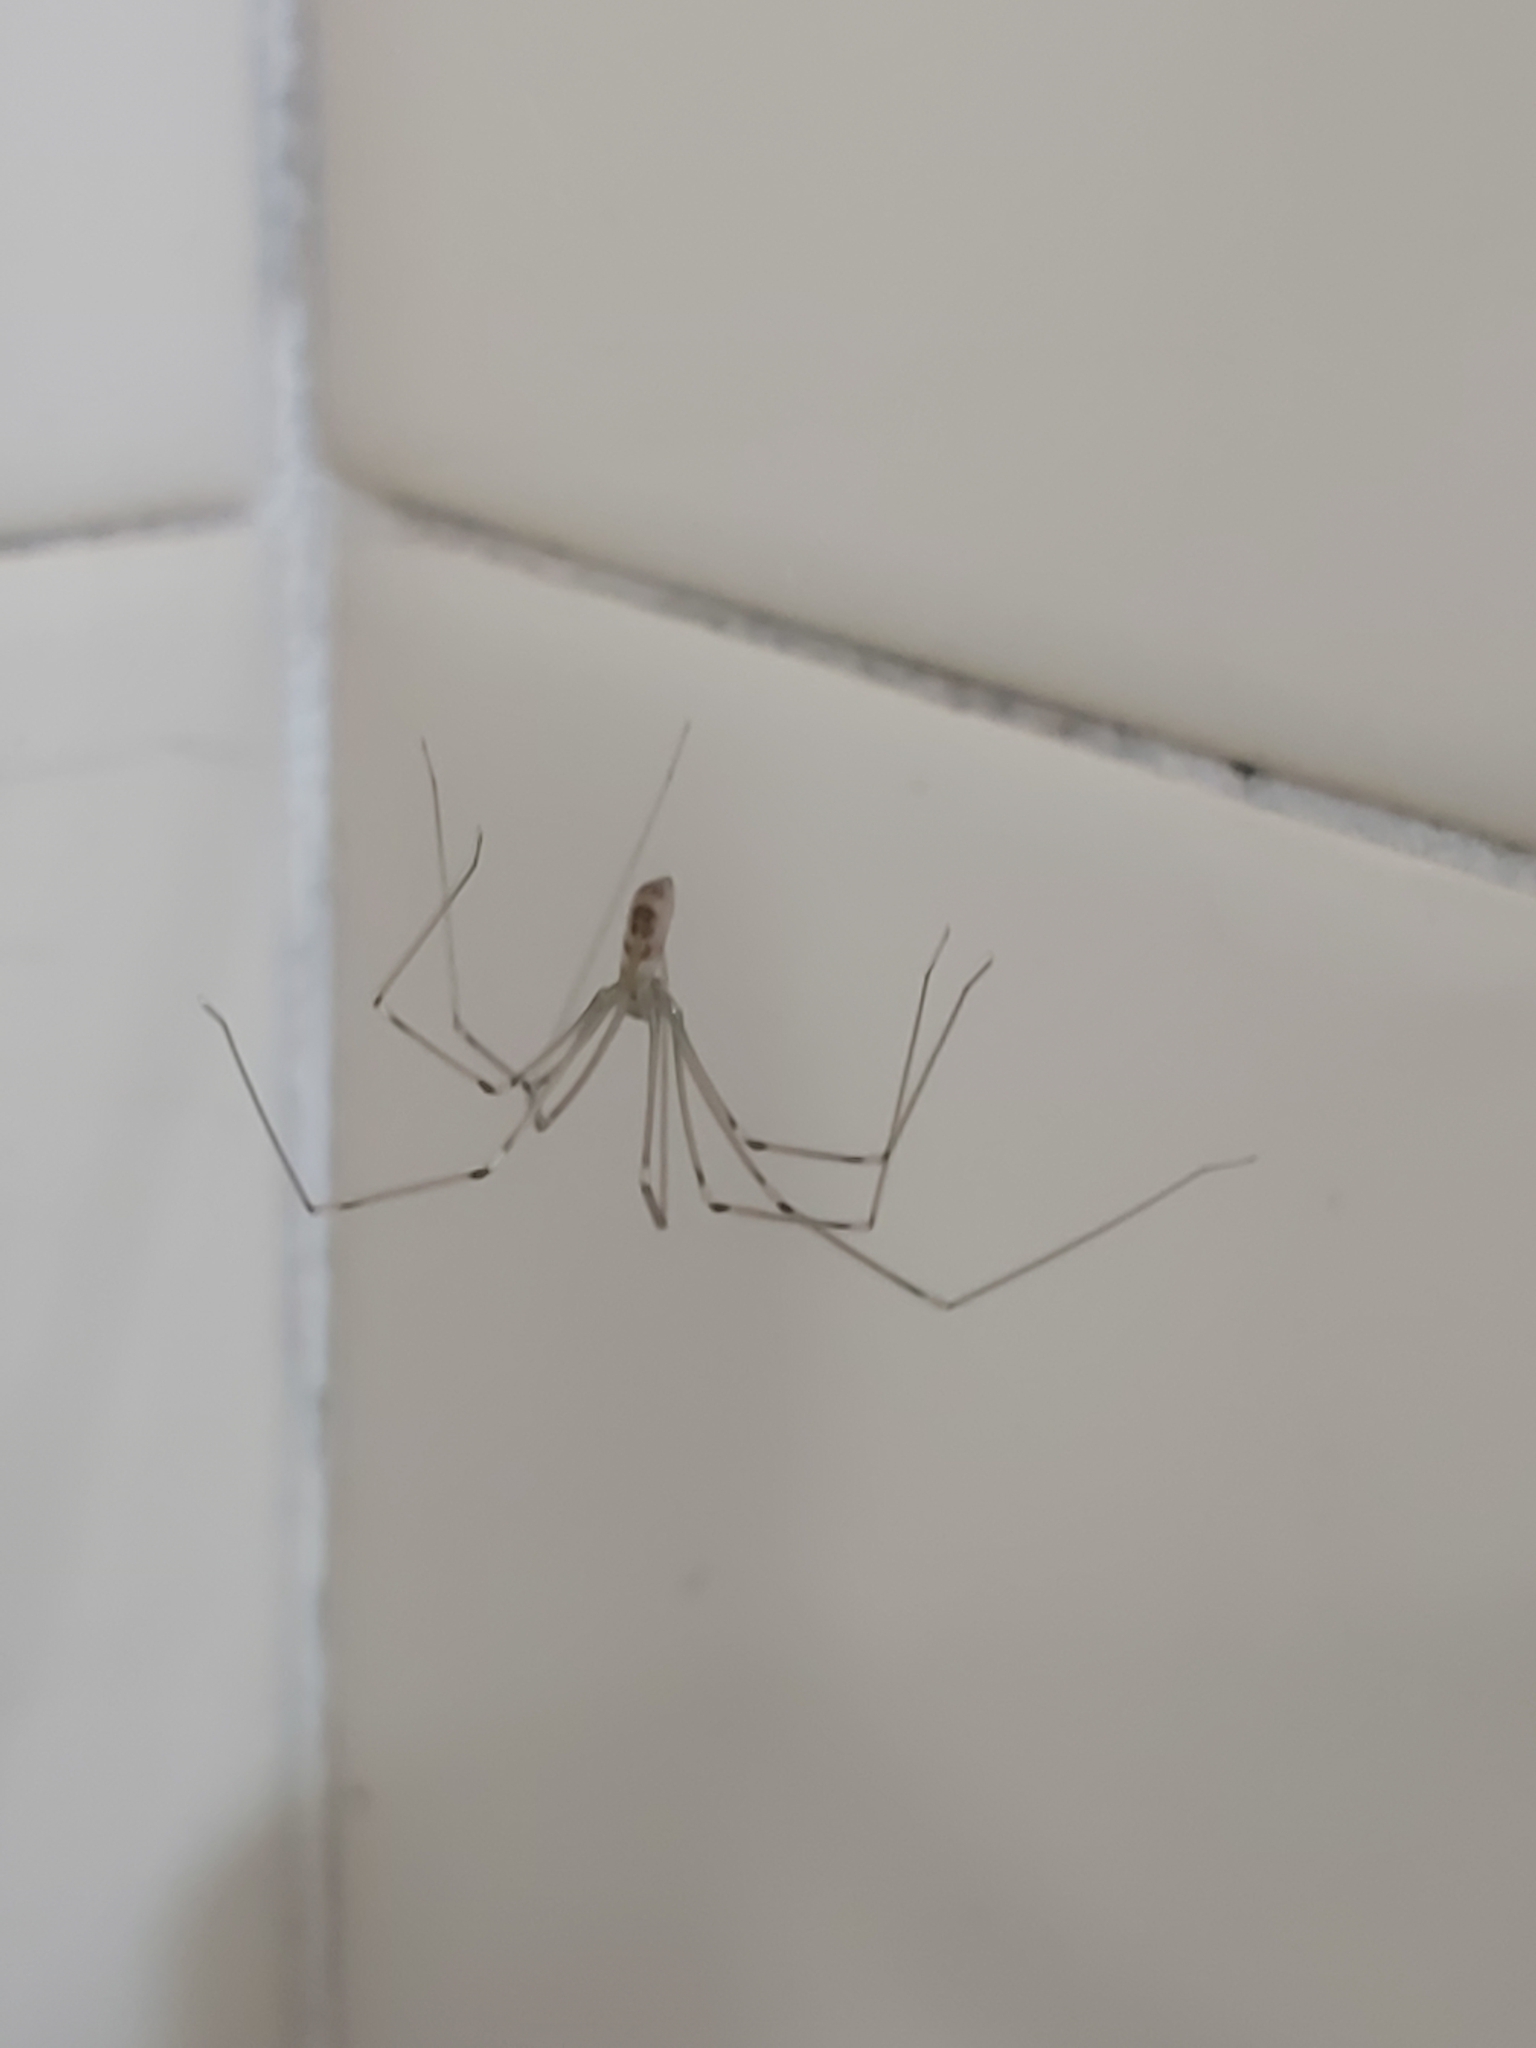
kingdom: Animalia
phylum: Arthropoda
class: Arachnida
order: Araneae
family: Pholcidae
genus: Pholcus
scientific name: Pholcus phalangioides
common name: Longbodied cellar spider
